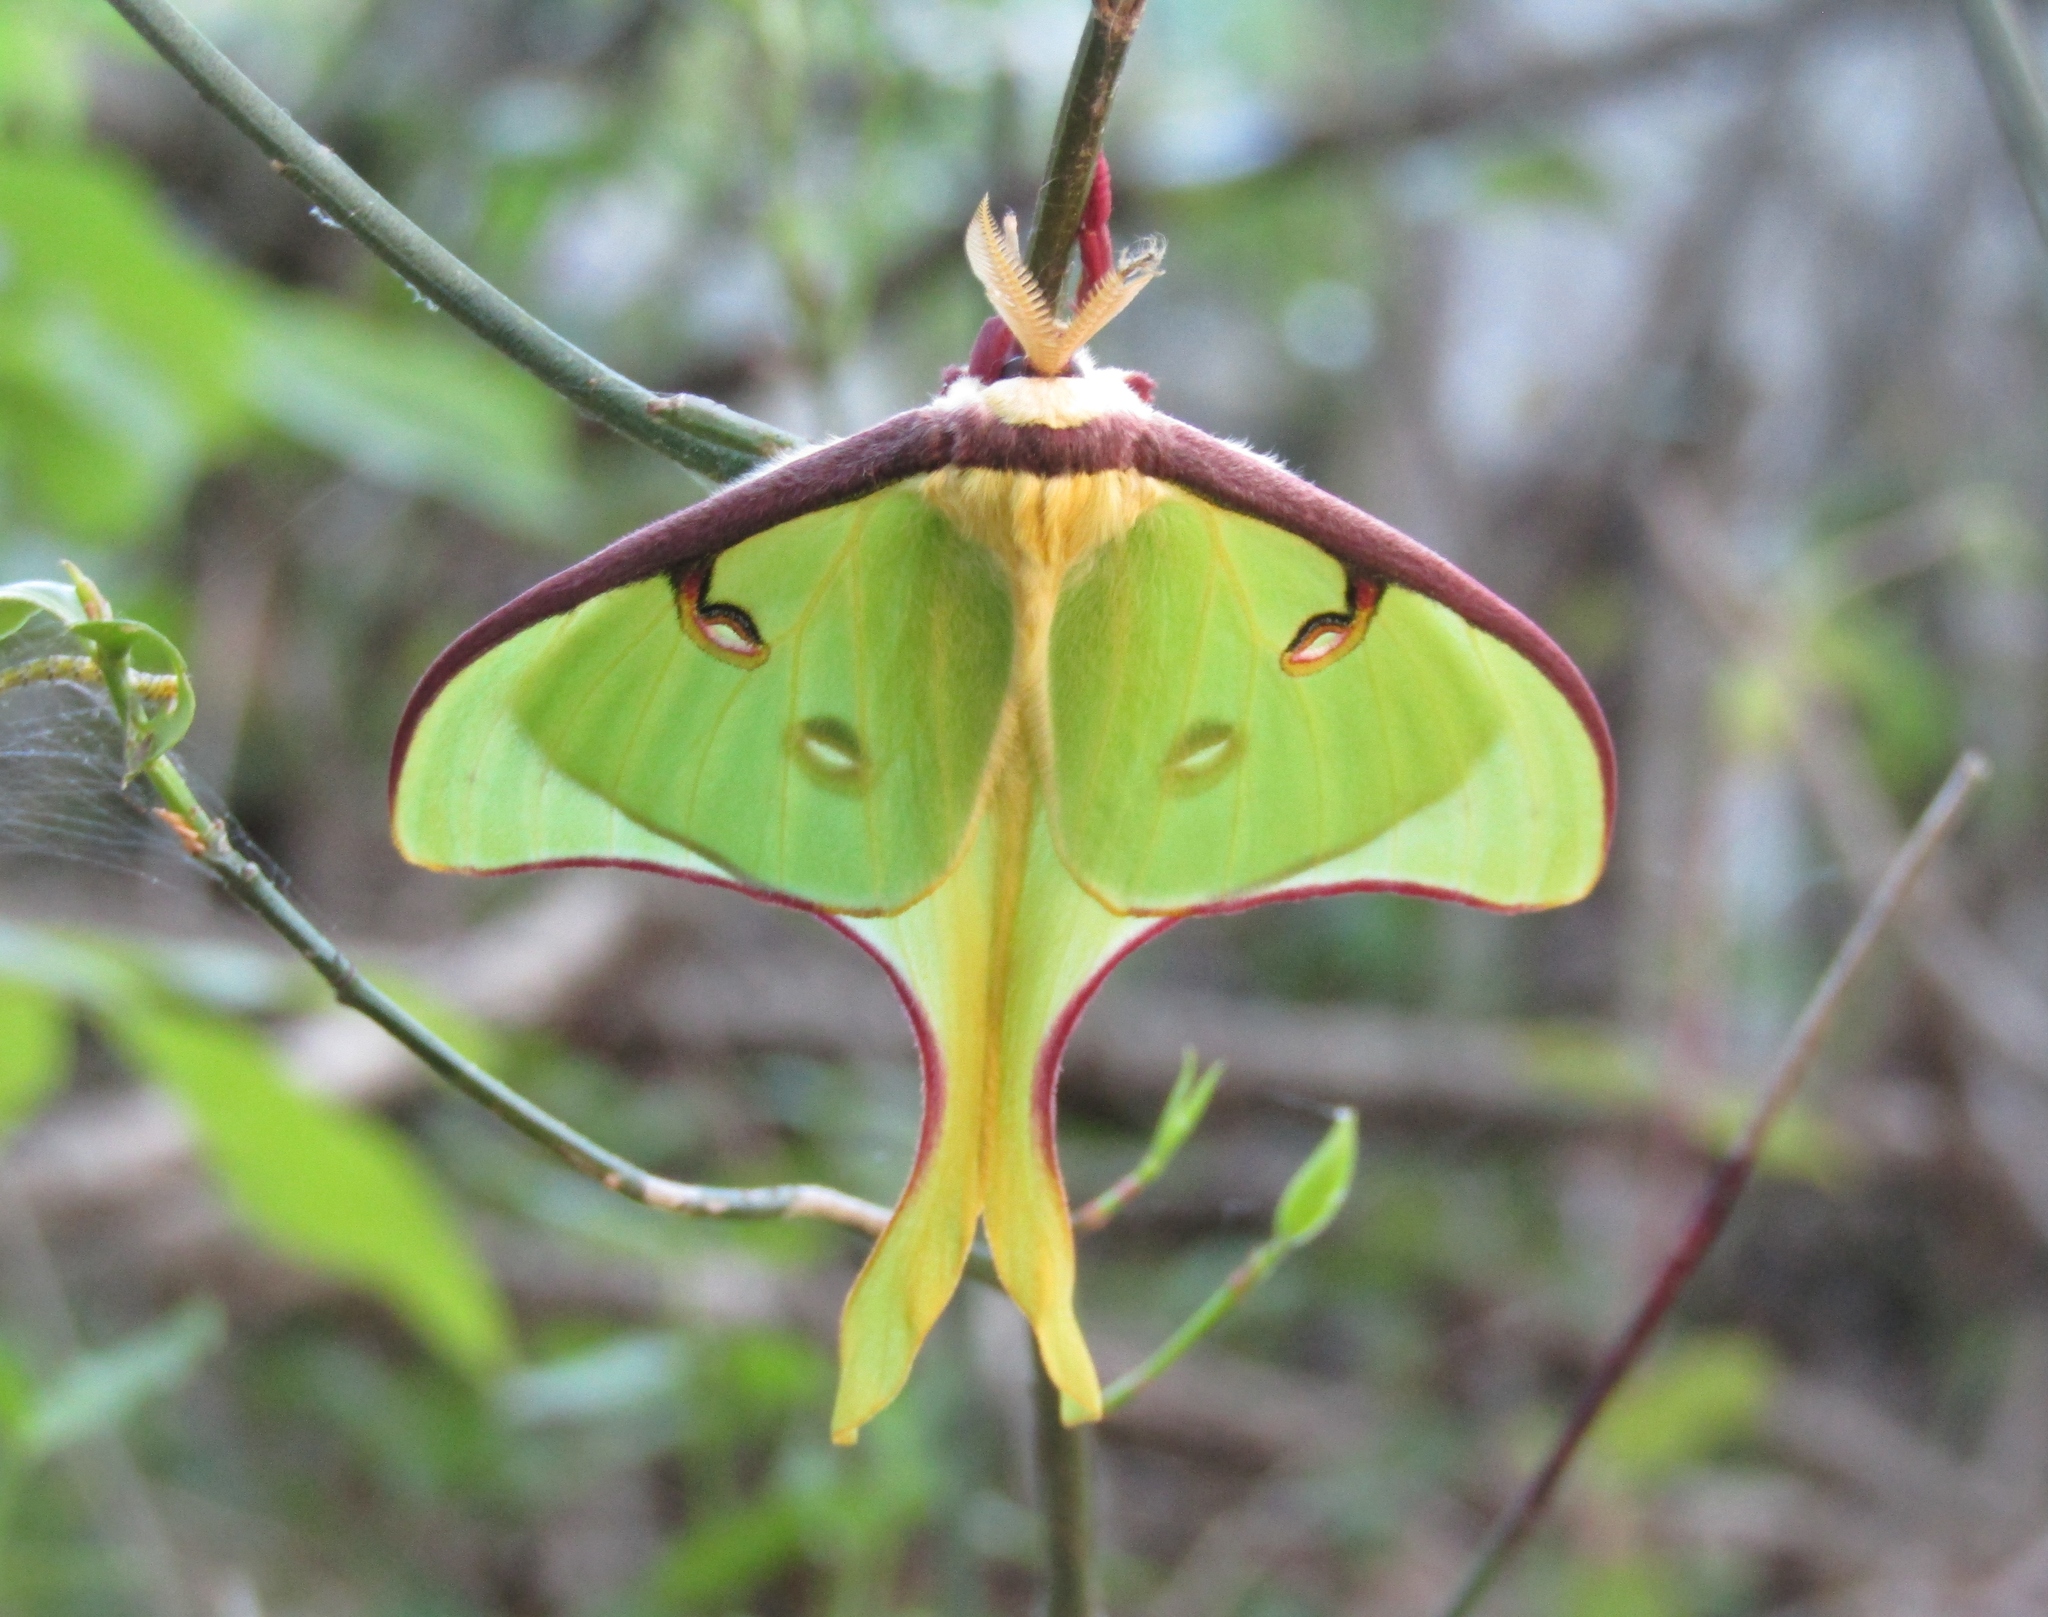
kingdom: Animalia
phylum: Arthropoda
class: Insecta
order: Lepidoptera
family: Saturniidae
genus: Actias
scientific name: Actias luna
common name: Luna moth
